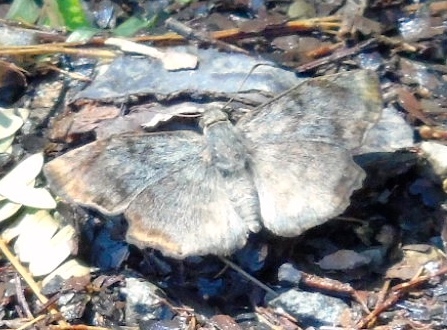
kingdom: Animalia
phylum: Arthropoda
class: Insecta
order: Lepidoptera
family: Hesperiidae
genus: Antigonus
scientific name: Antigonus erosus
